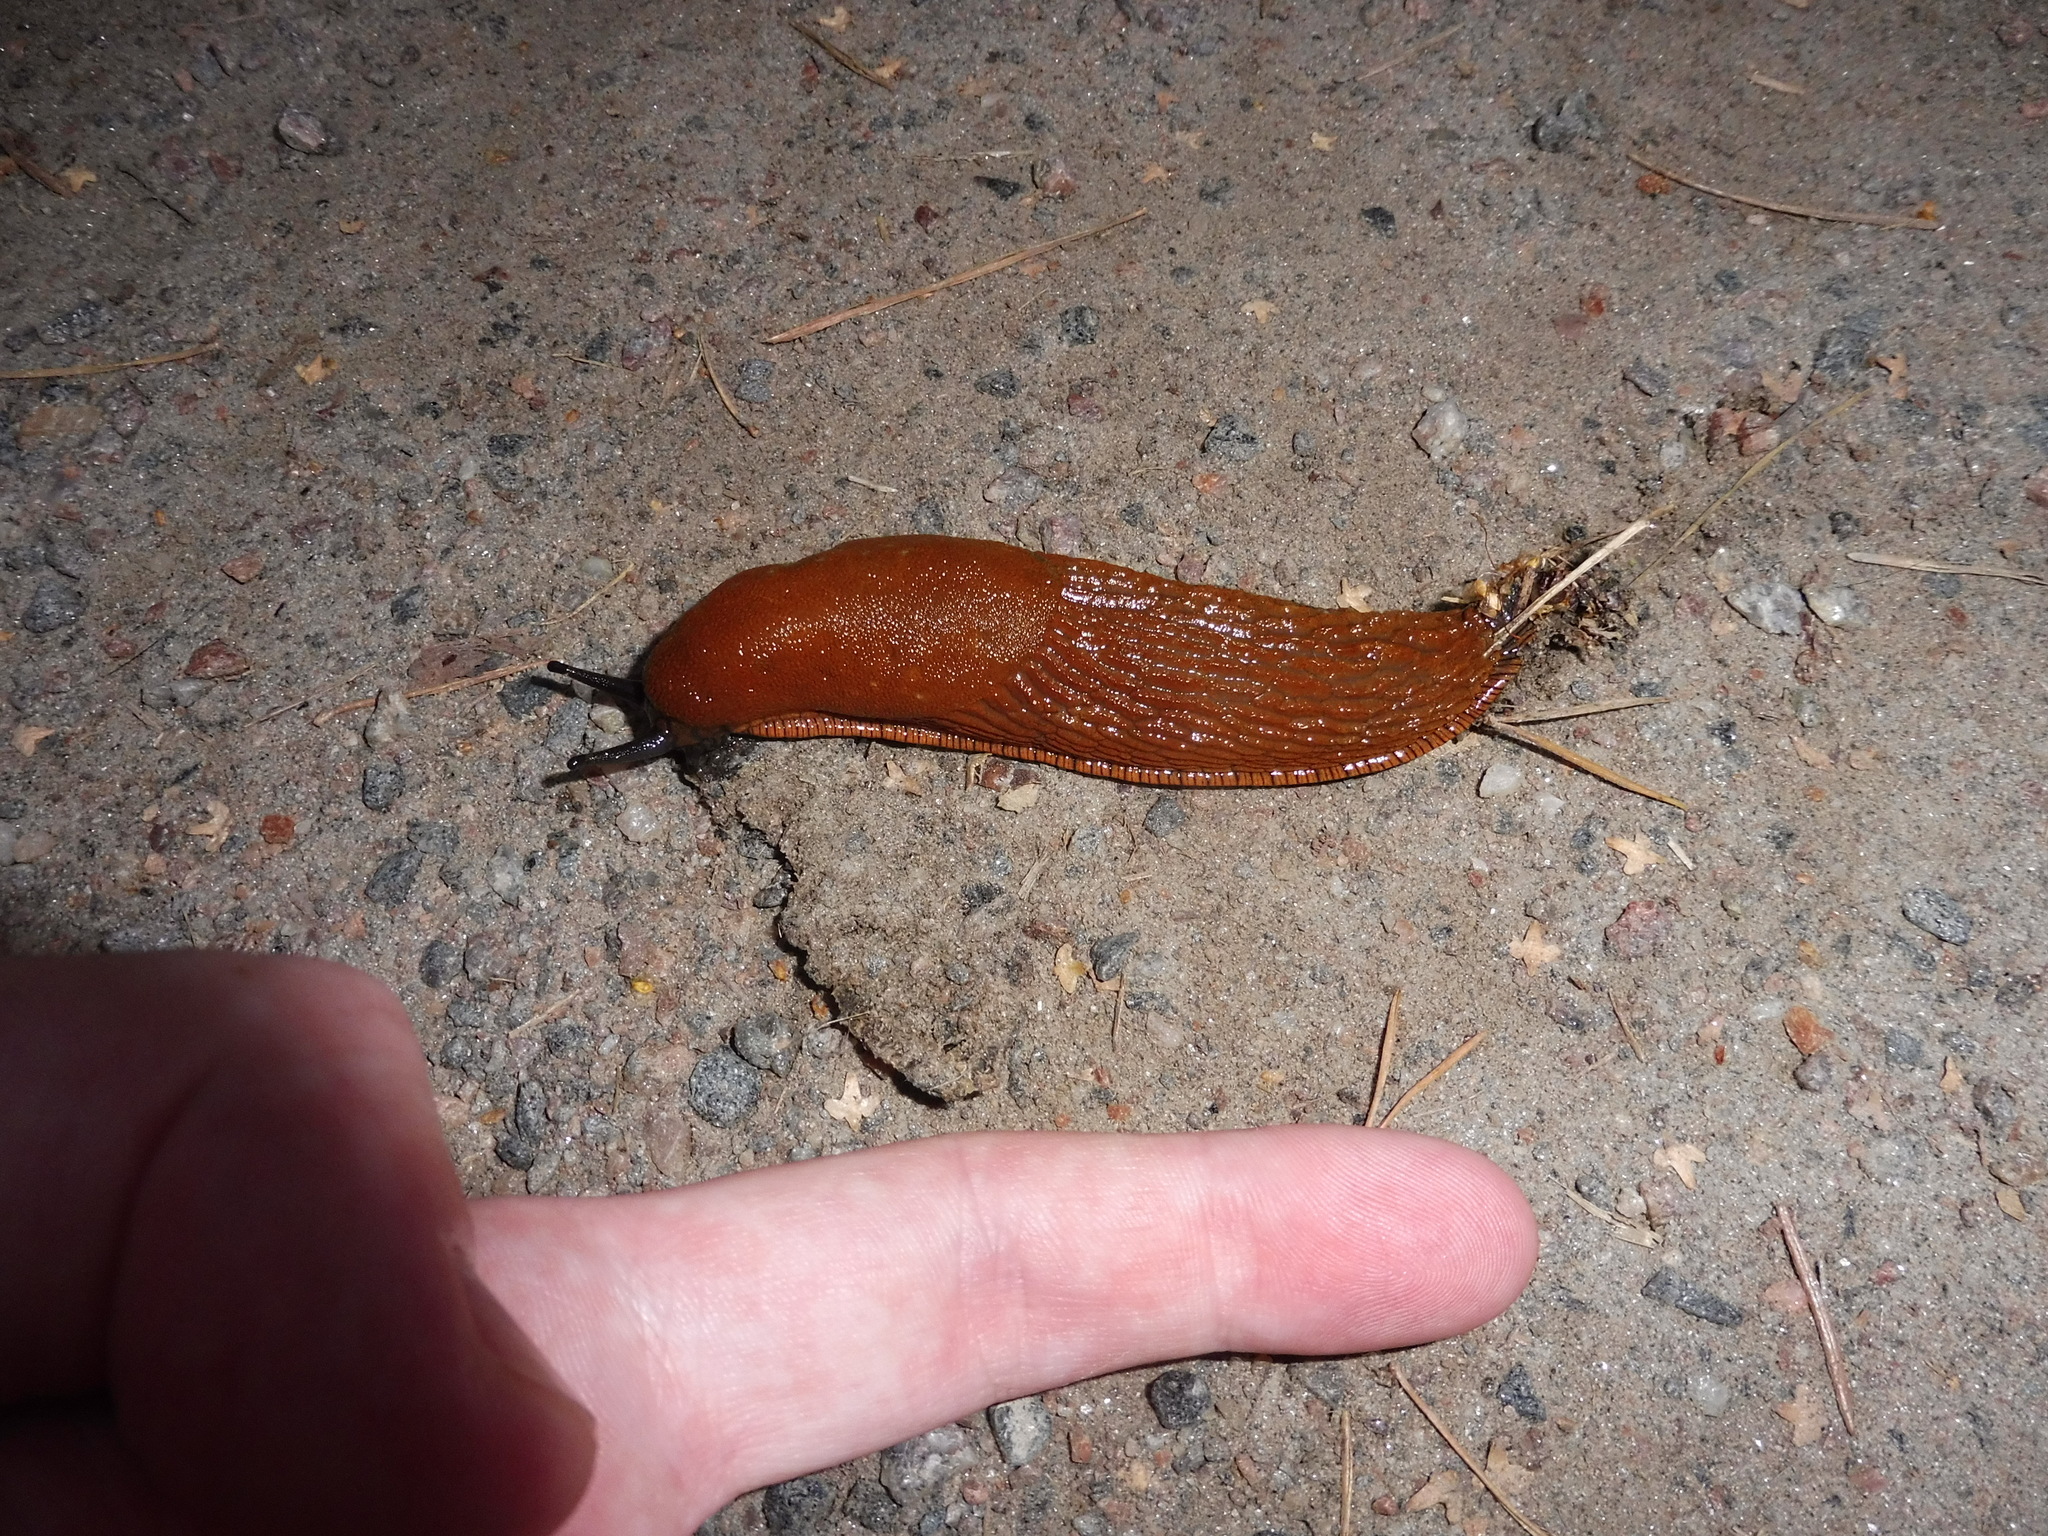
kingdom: Animalia
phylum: Mollusca
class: Gastropoda
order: Stylommatophora
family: Arionidae
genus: Arion
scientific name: Arion vulgaris
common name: Lusitanian slug
